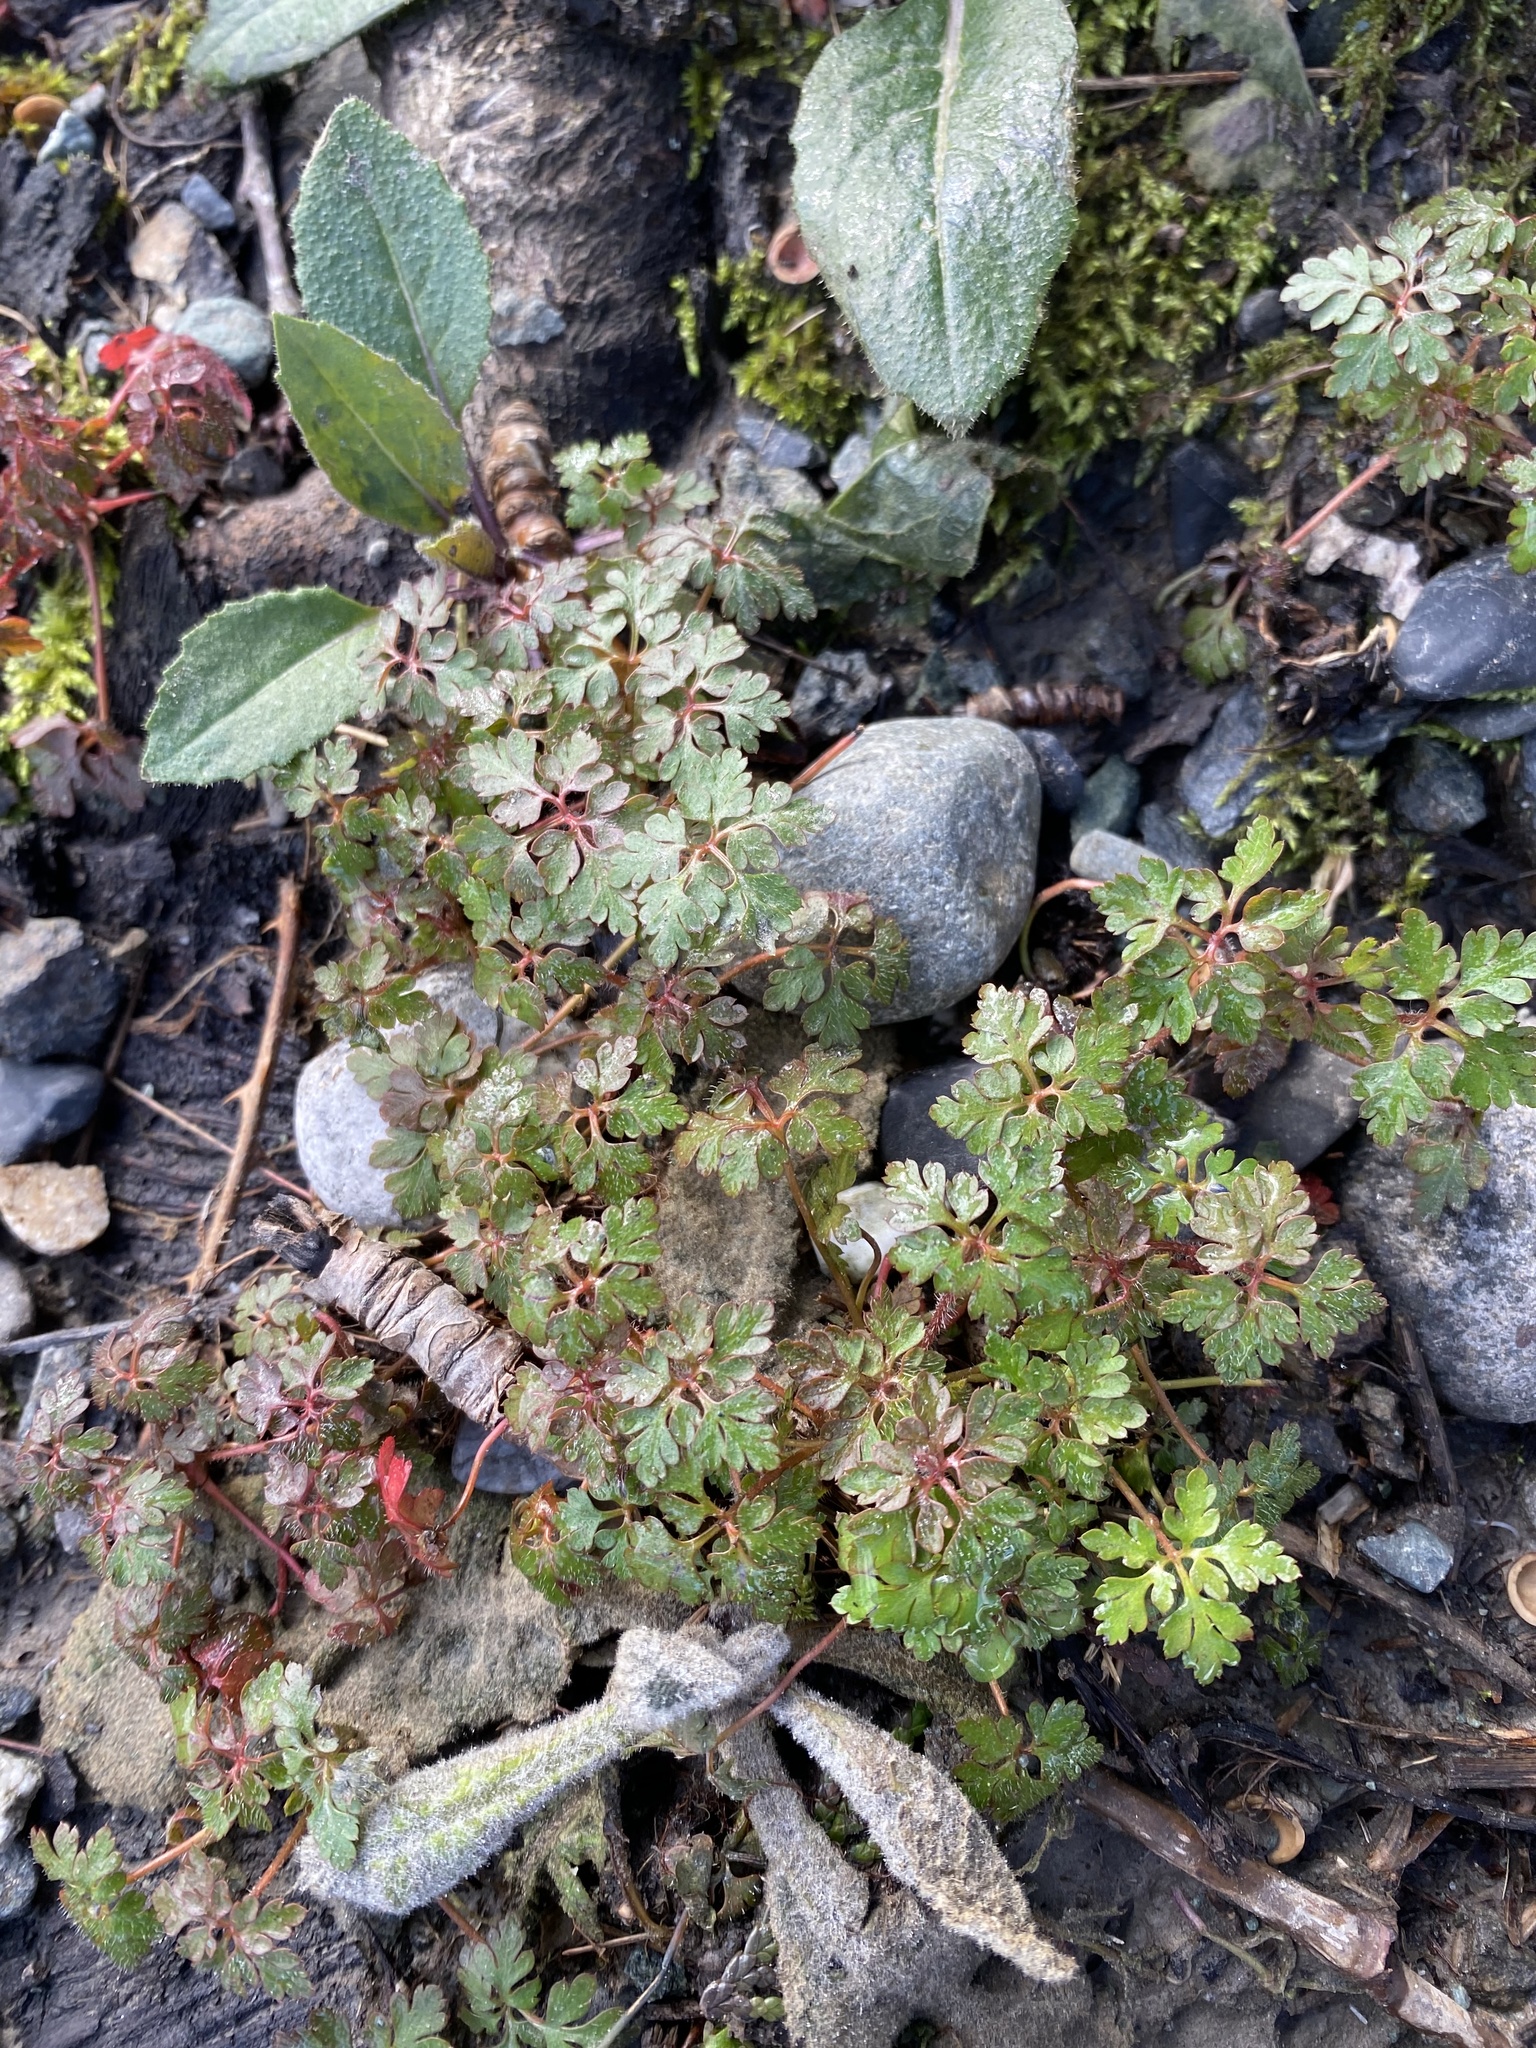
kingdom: Plantae
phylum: Tracheophyta
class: Magnoliopsida
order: Geraniales
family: Geraniaceae
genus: Geranium
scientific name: Geranium robertianum
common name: Herb-robert
